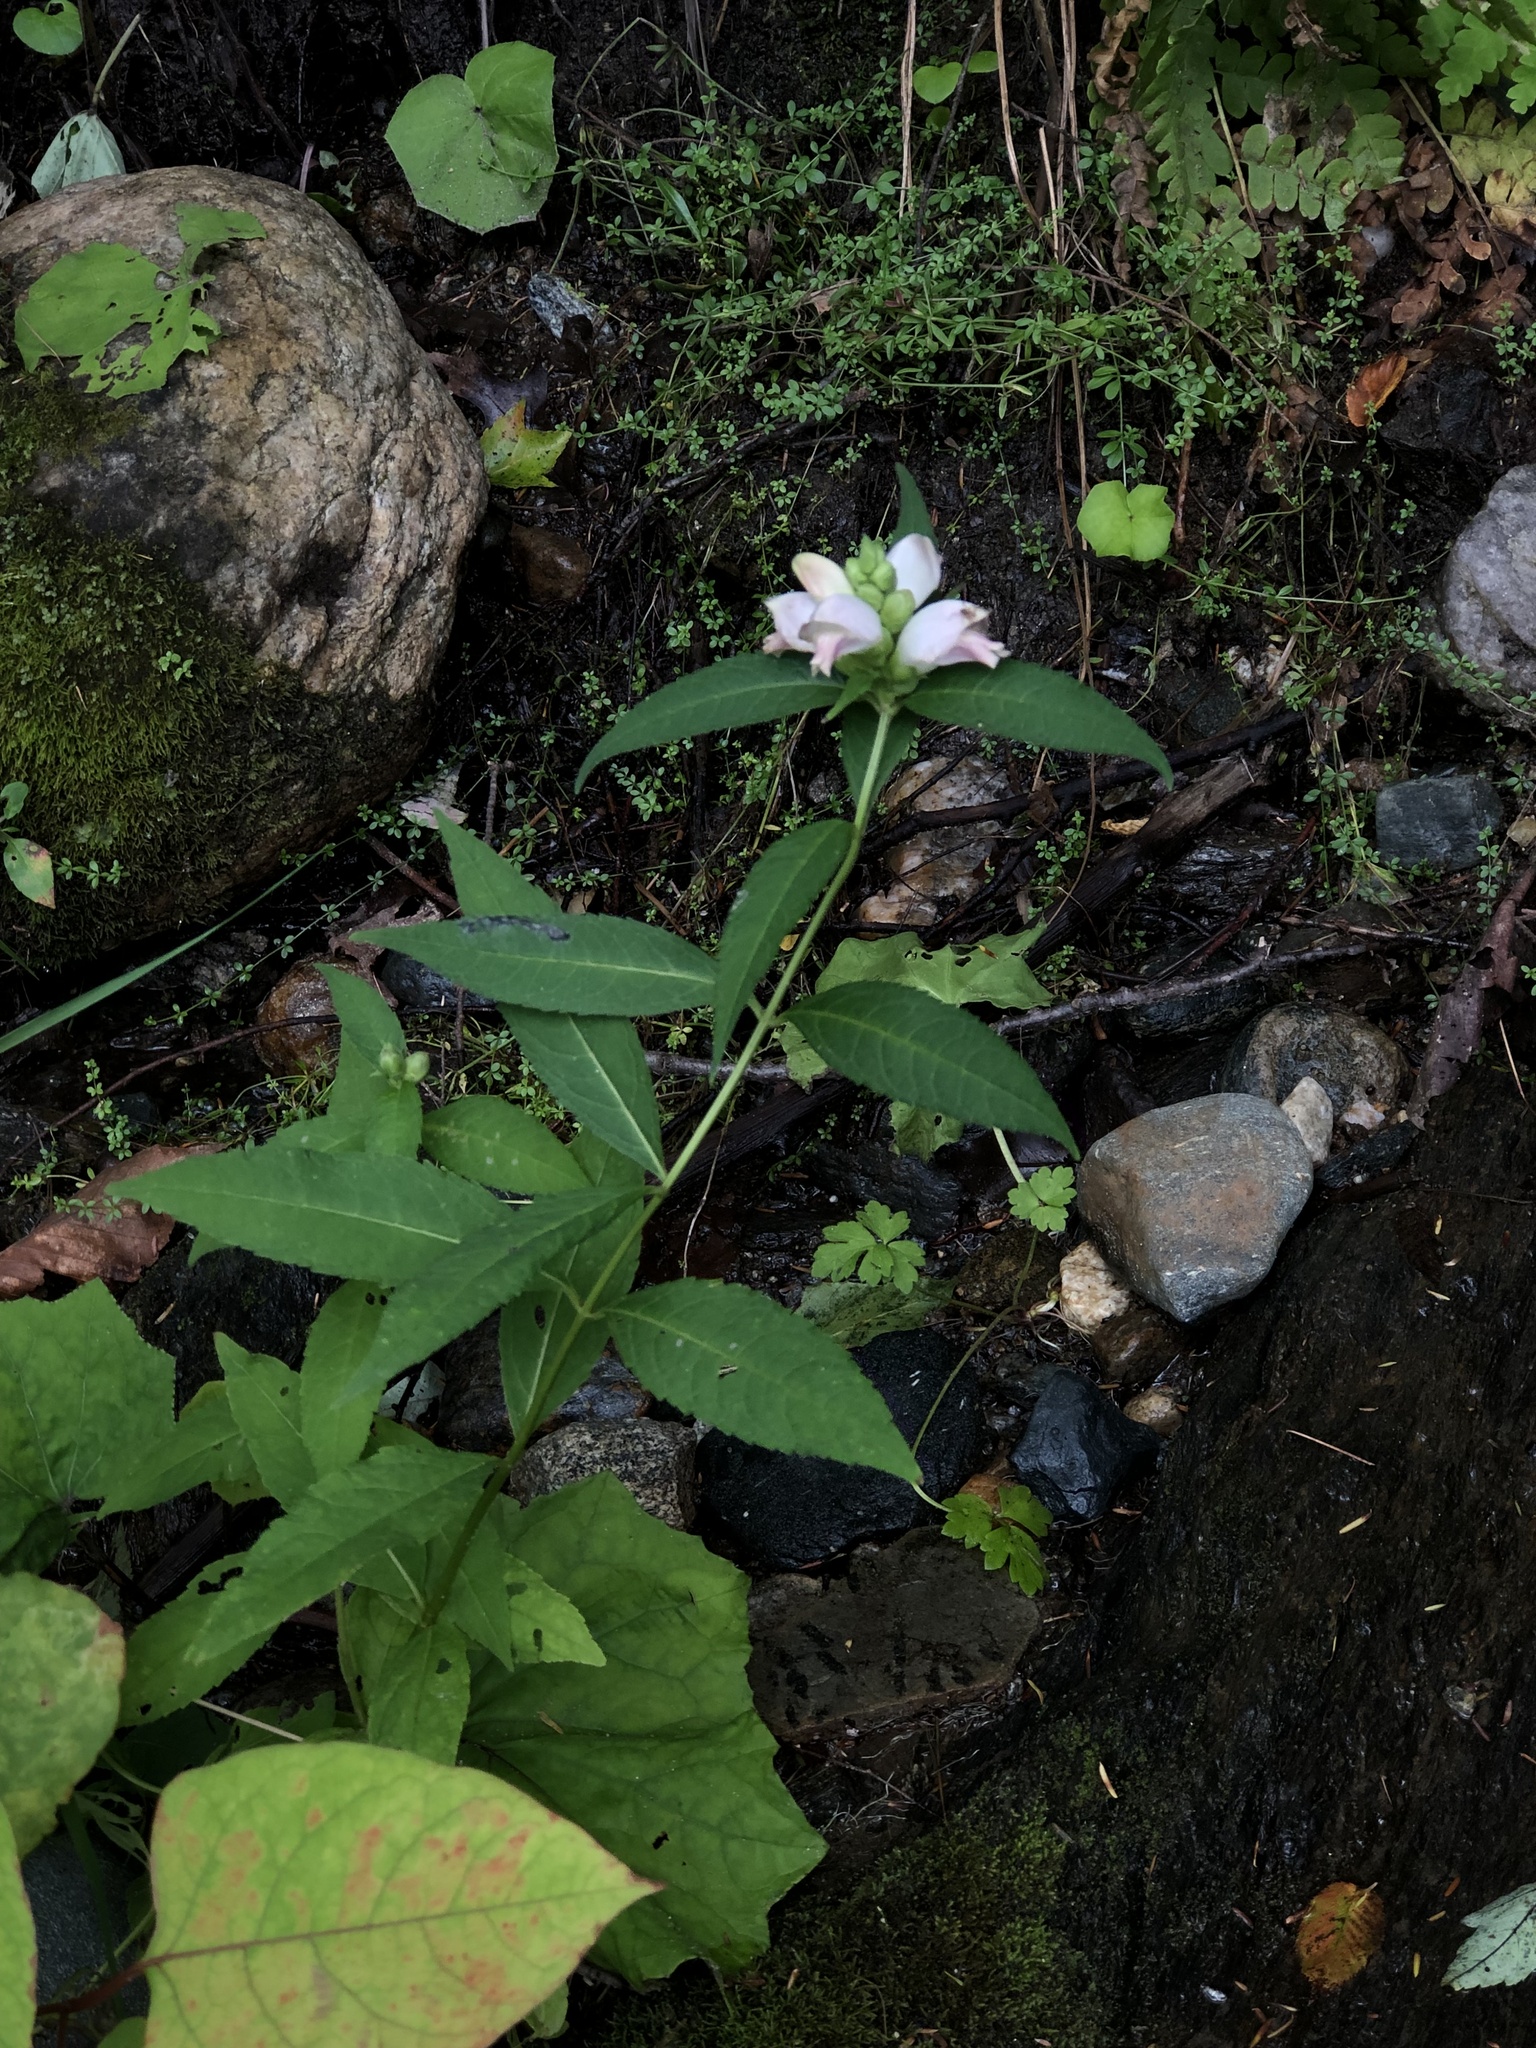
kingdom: Plantae
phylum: Tracheophyta
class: Magnoliopsida
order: Lamiales
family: Plantaginaceae
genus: Chelone
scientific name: Chelone glabra
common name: Snakehead
